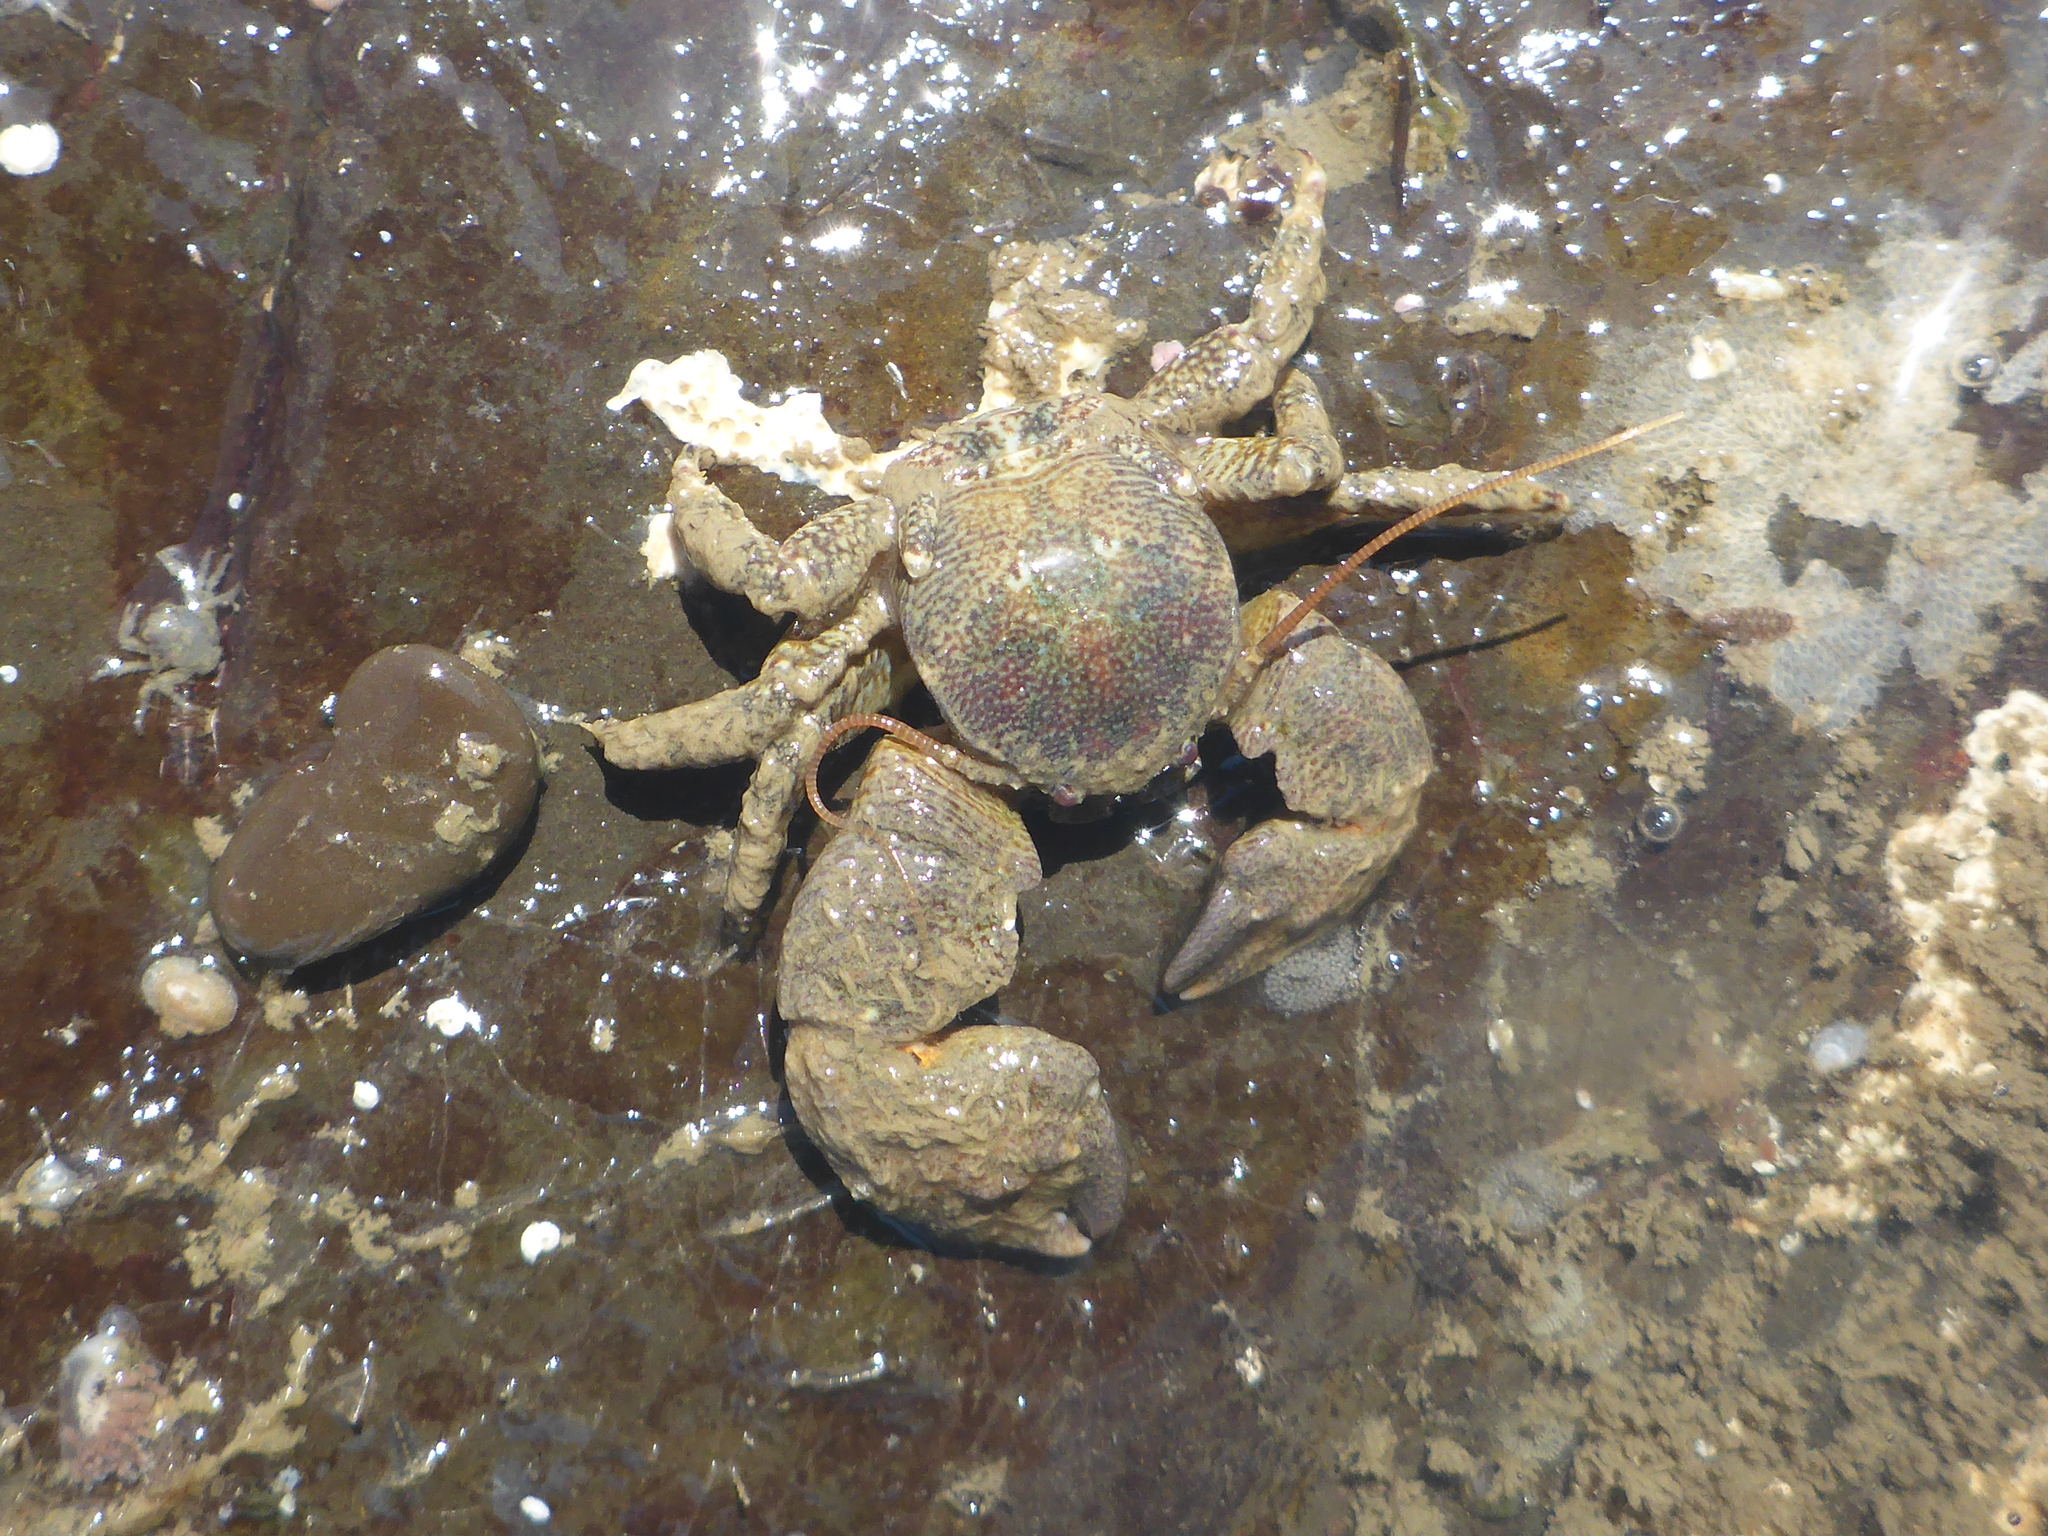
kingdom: Animalia
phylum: Arthropoda
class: Malacostraca
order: Decapoda
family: Porcellanidae
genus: Pachycheles
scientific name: Pachycheles rudis
